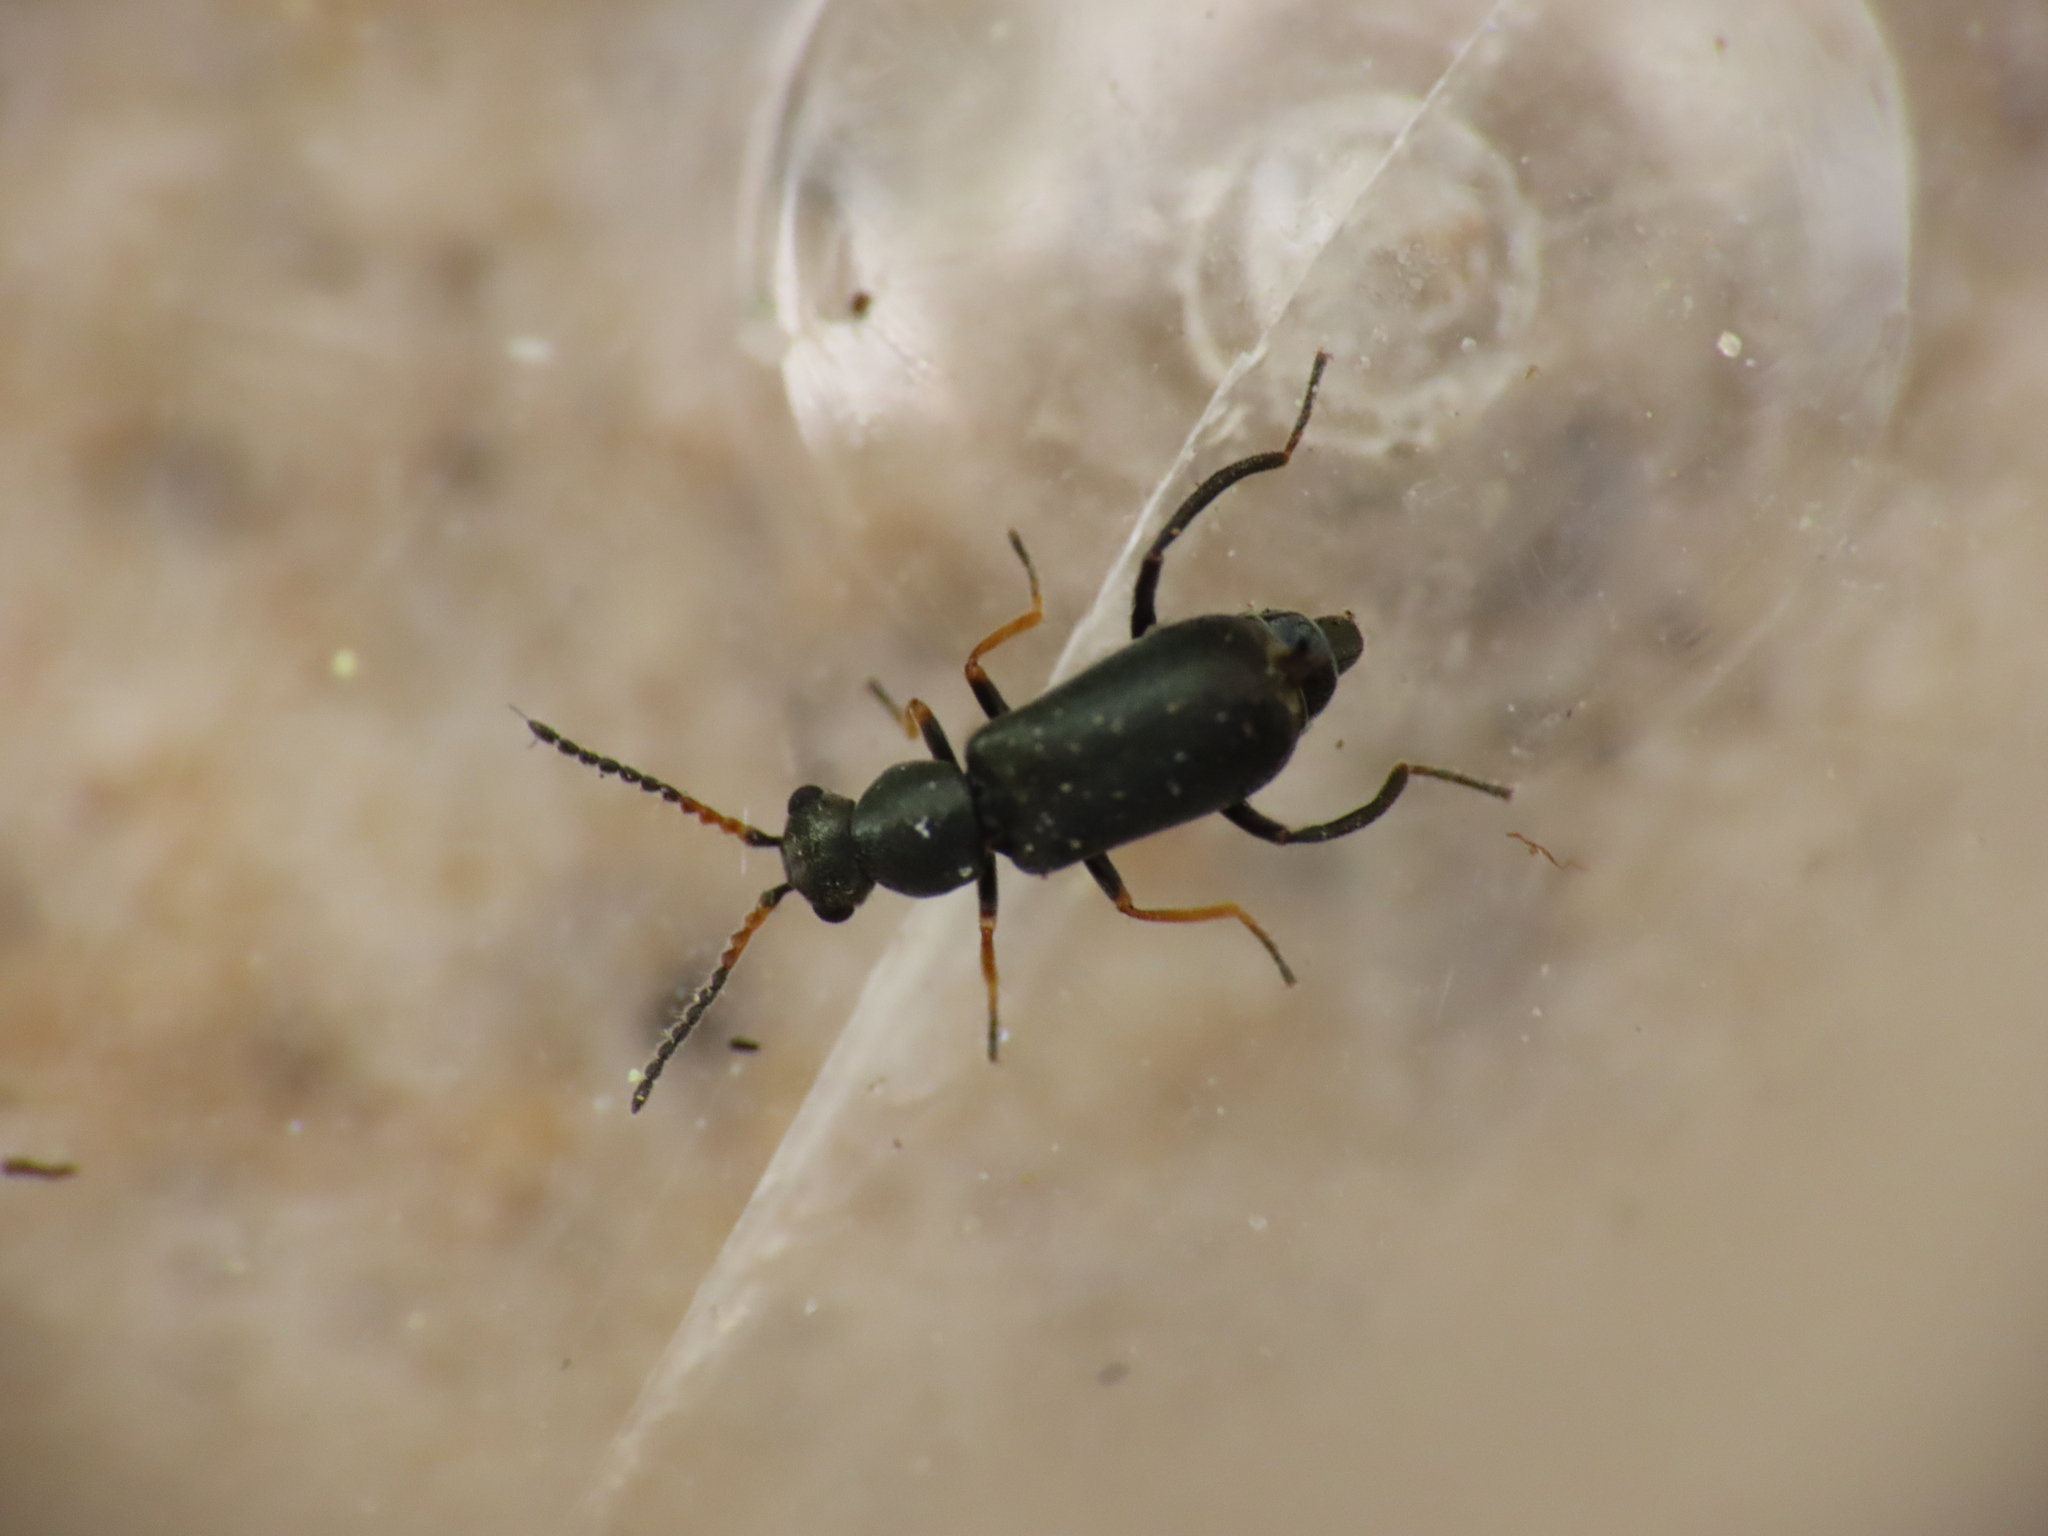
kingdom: Animalia
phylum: Arthropoda
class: Insecta
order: Coleoptera
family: Malachiidae
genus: Charopus
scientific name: Charopus pallipes
